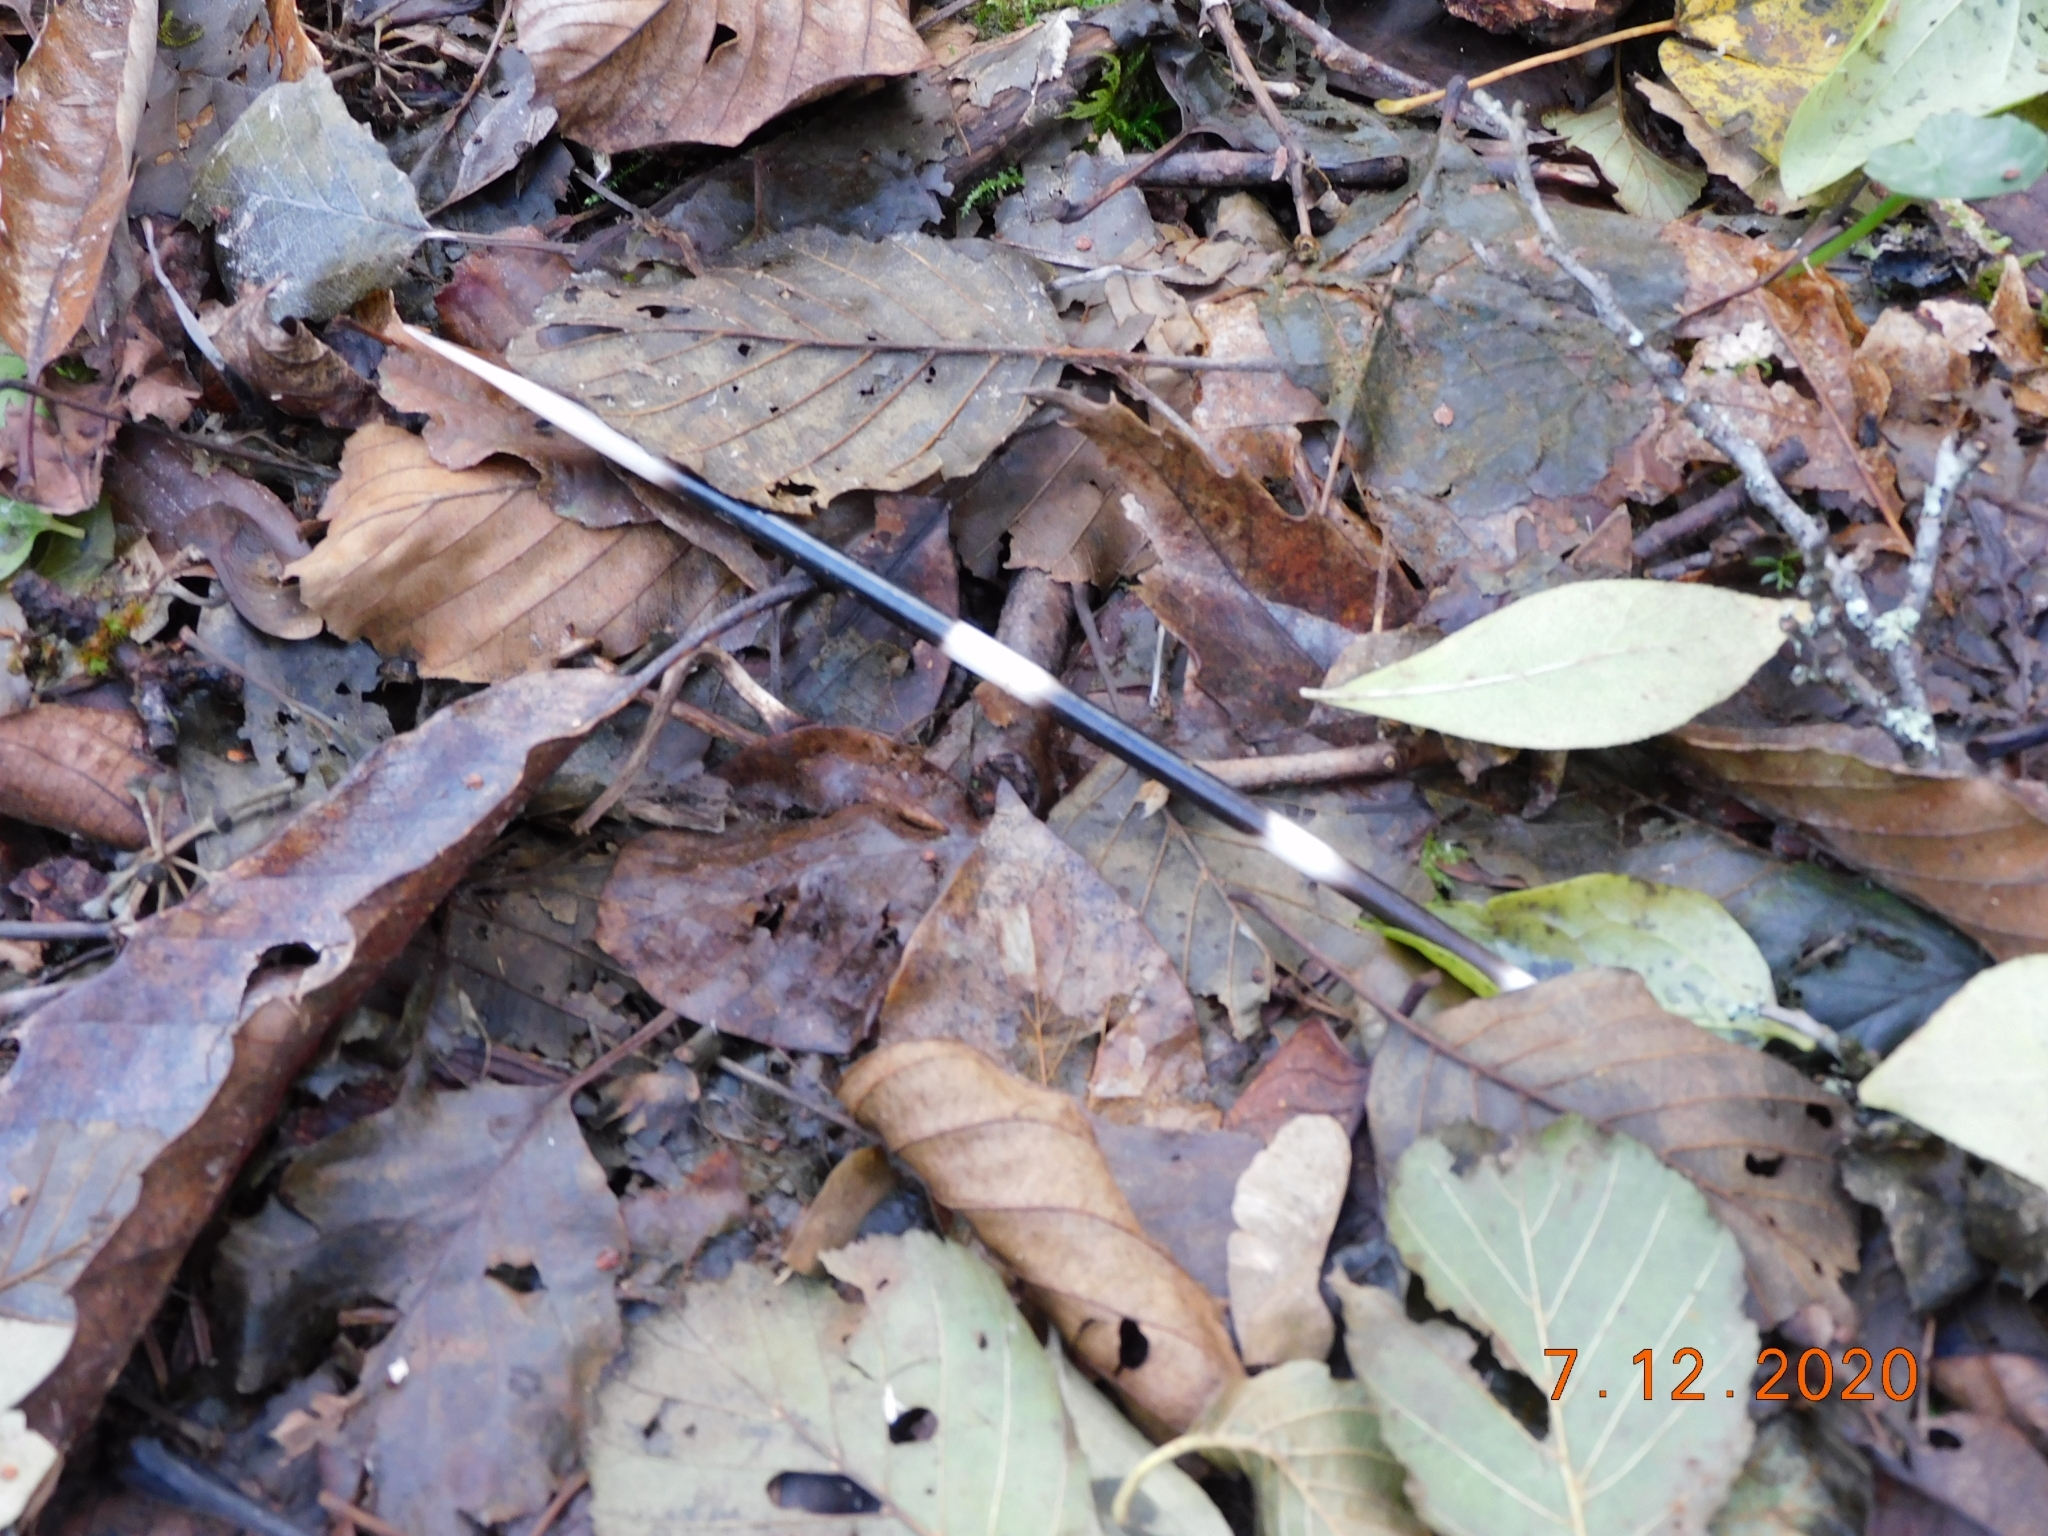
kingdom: Animalia
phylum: Chordata
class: Mammalia
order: Rodentia
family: Hystricidae
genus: Hystrix
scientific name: Hystrix cristata
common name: Crested porcupine
